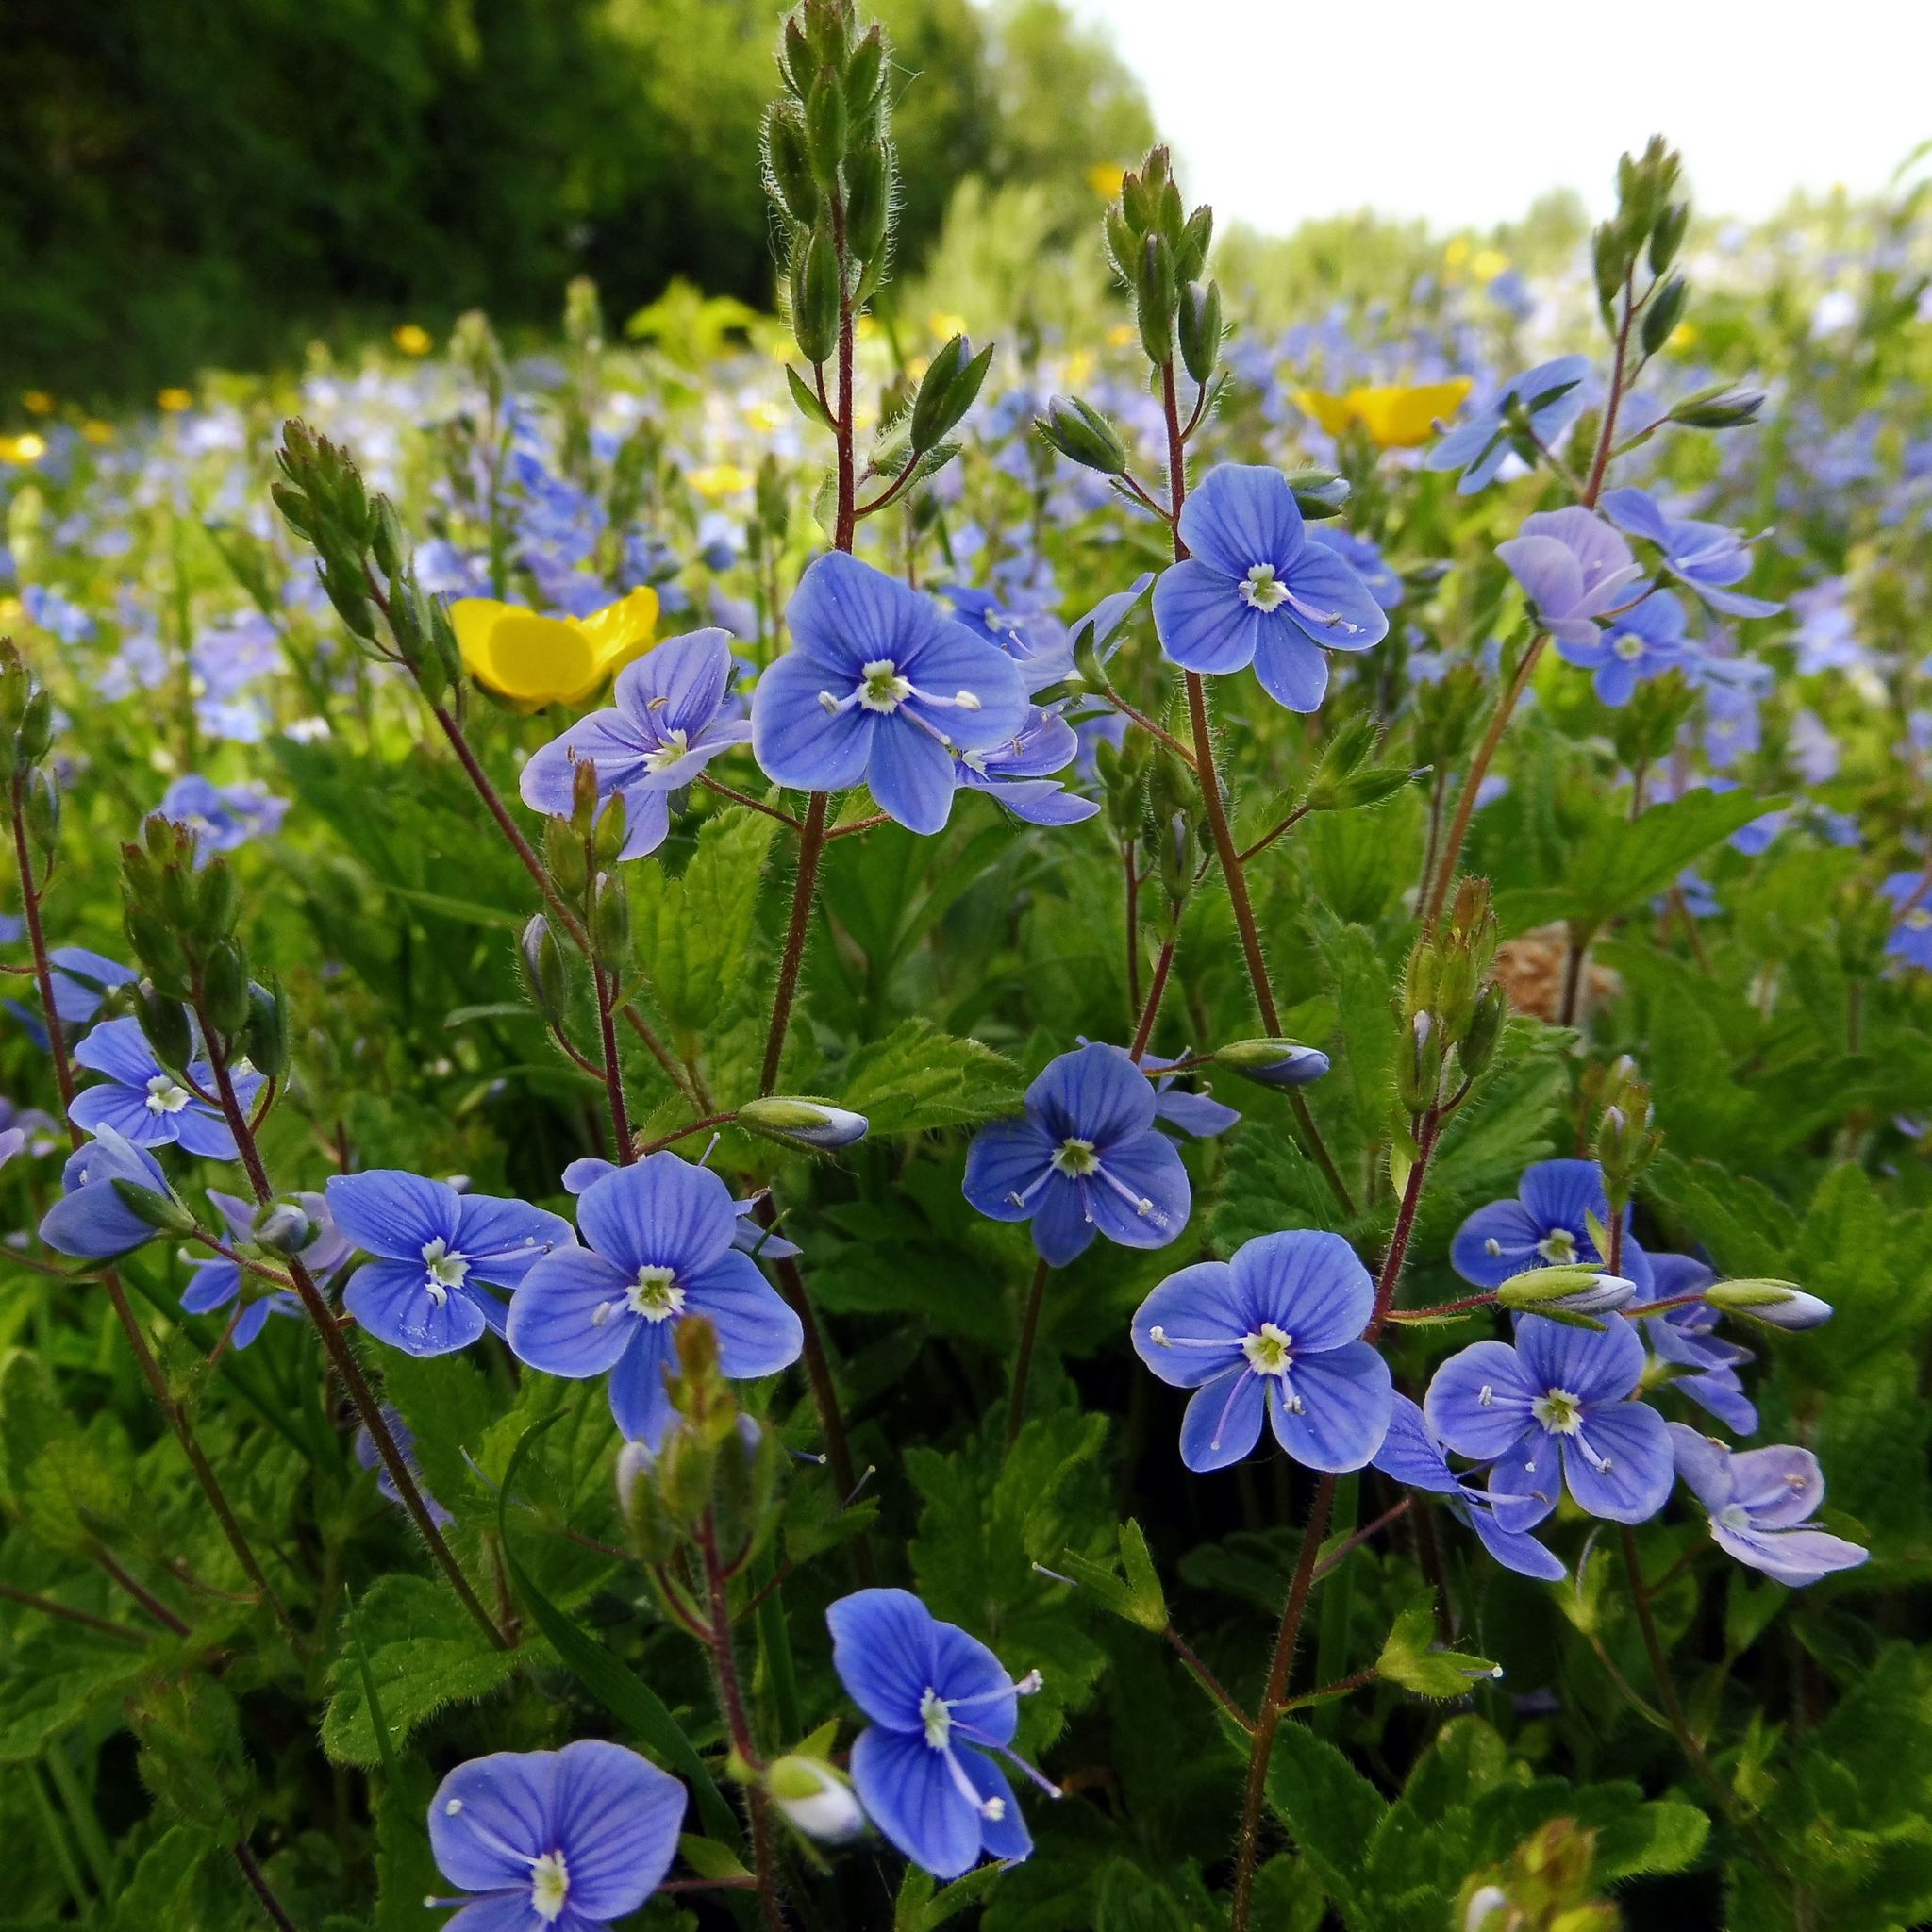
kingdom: Plantae
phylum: Tracheophyta
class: Magnoliopsida
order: Lamiales
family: Plantaginaceae
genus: Veronica
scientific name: Veronica chamaedrys
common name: Germander speedwell
